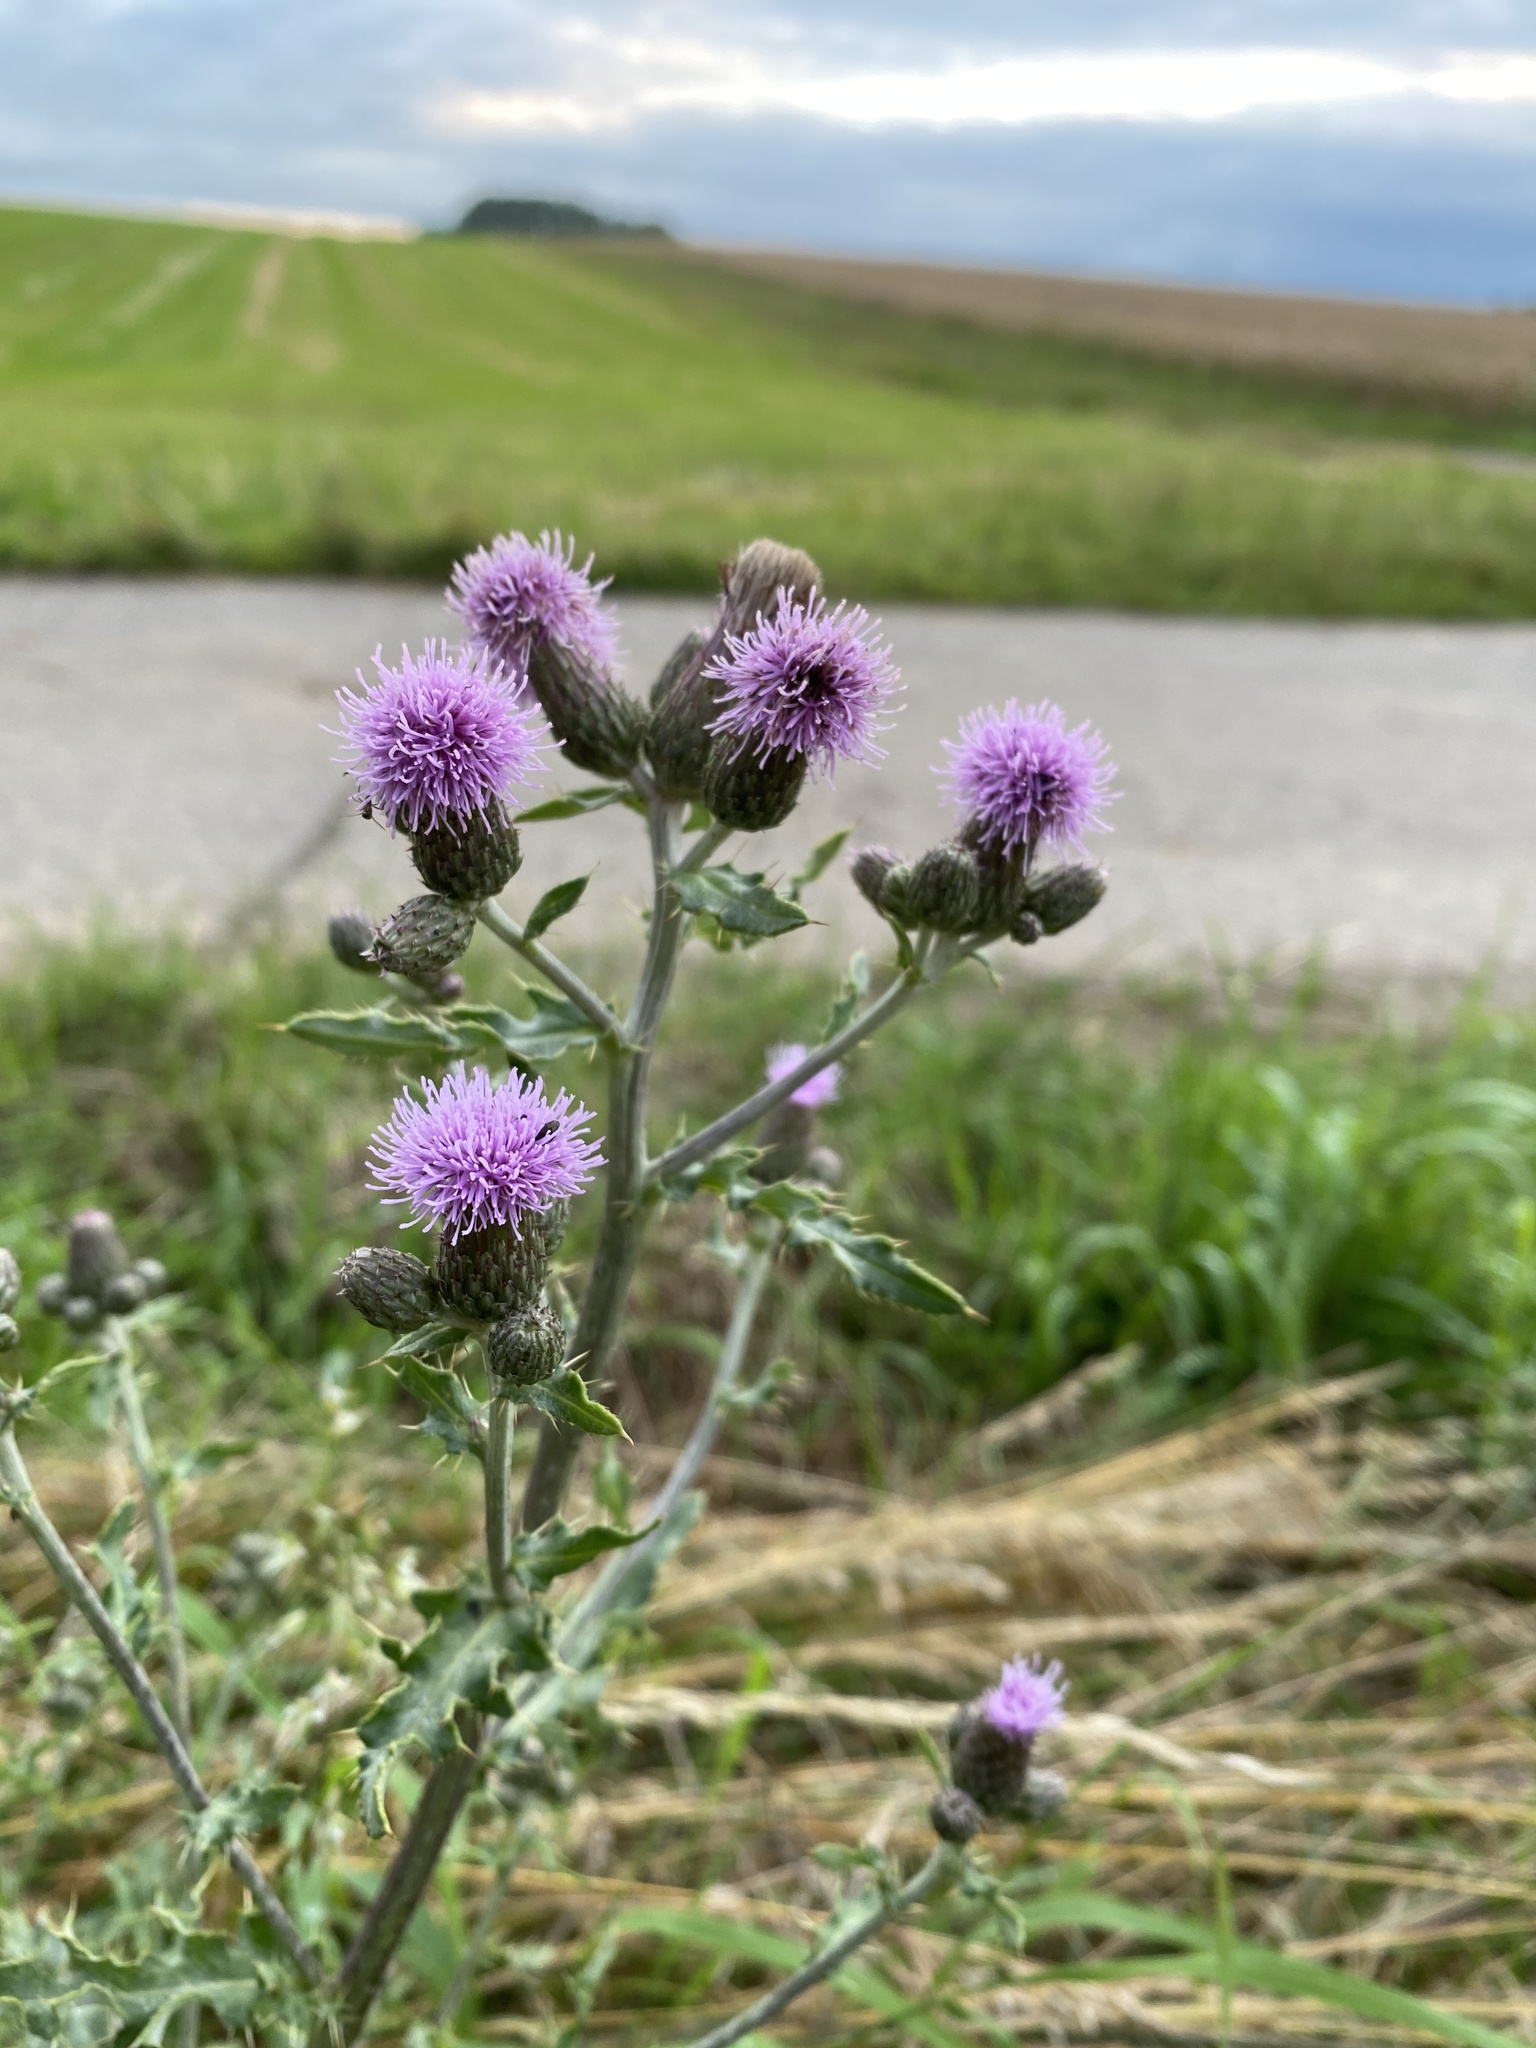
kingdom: Plantae
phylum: Tracheophyta
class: Magnoliopsida
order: Asterales
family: Asteraceae
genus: Cirsium
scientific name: Cirsium arvense
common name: Creeping thistle
